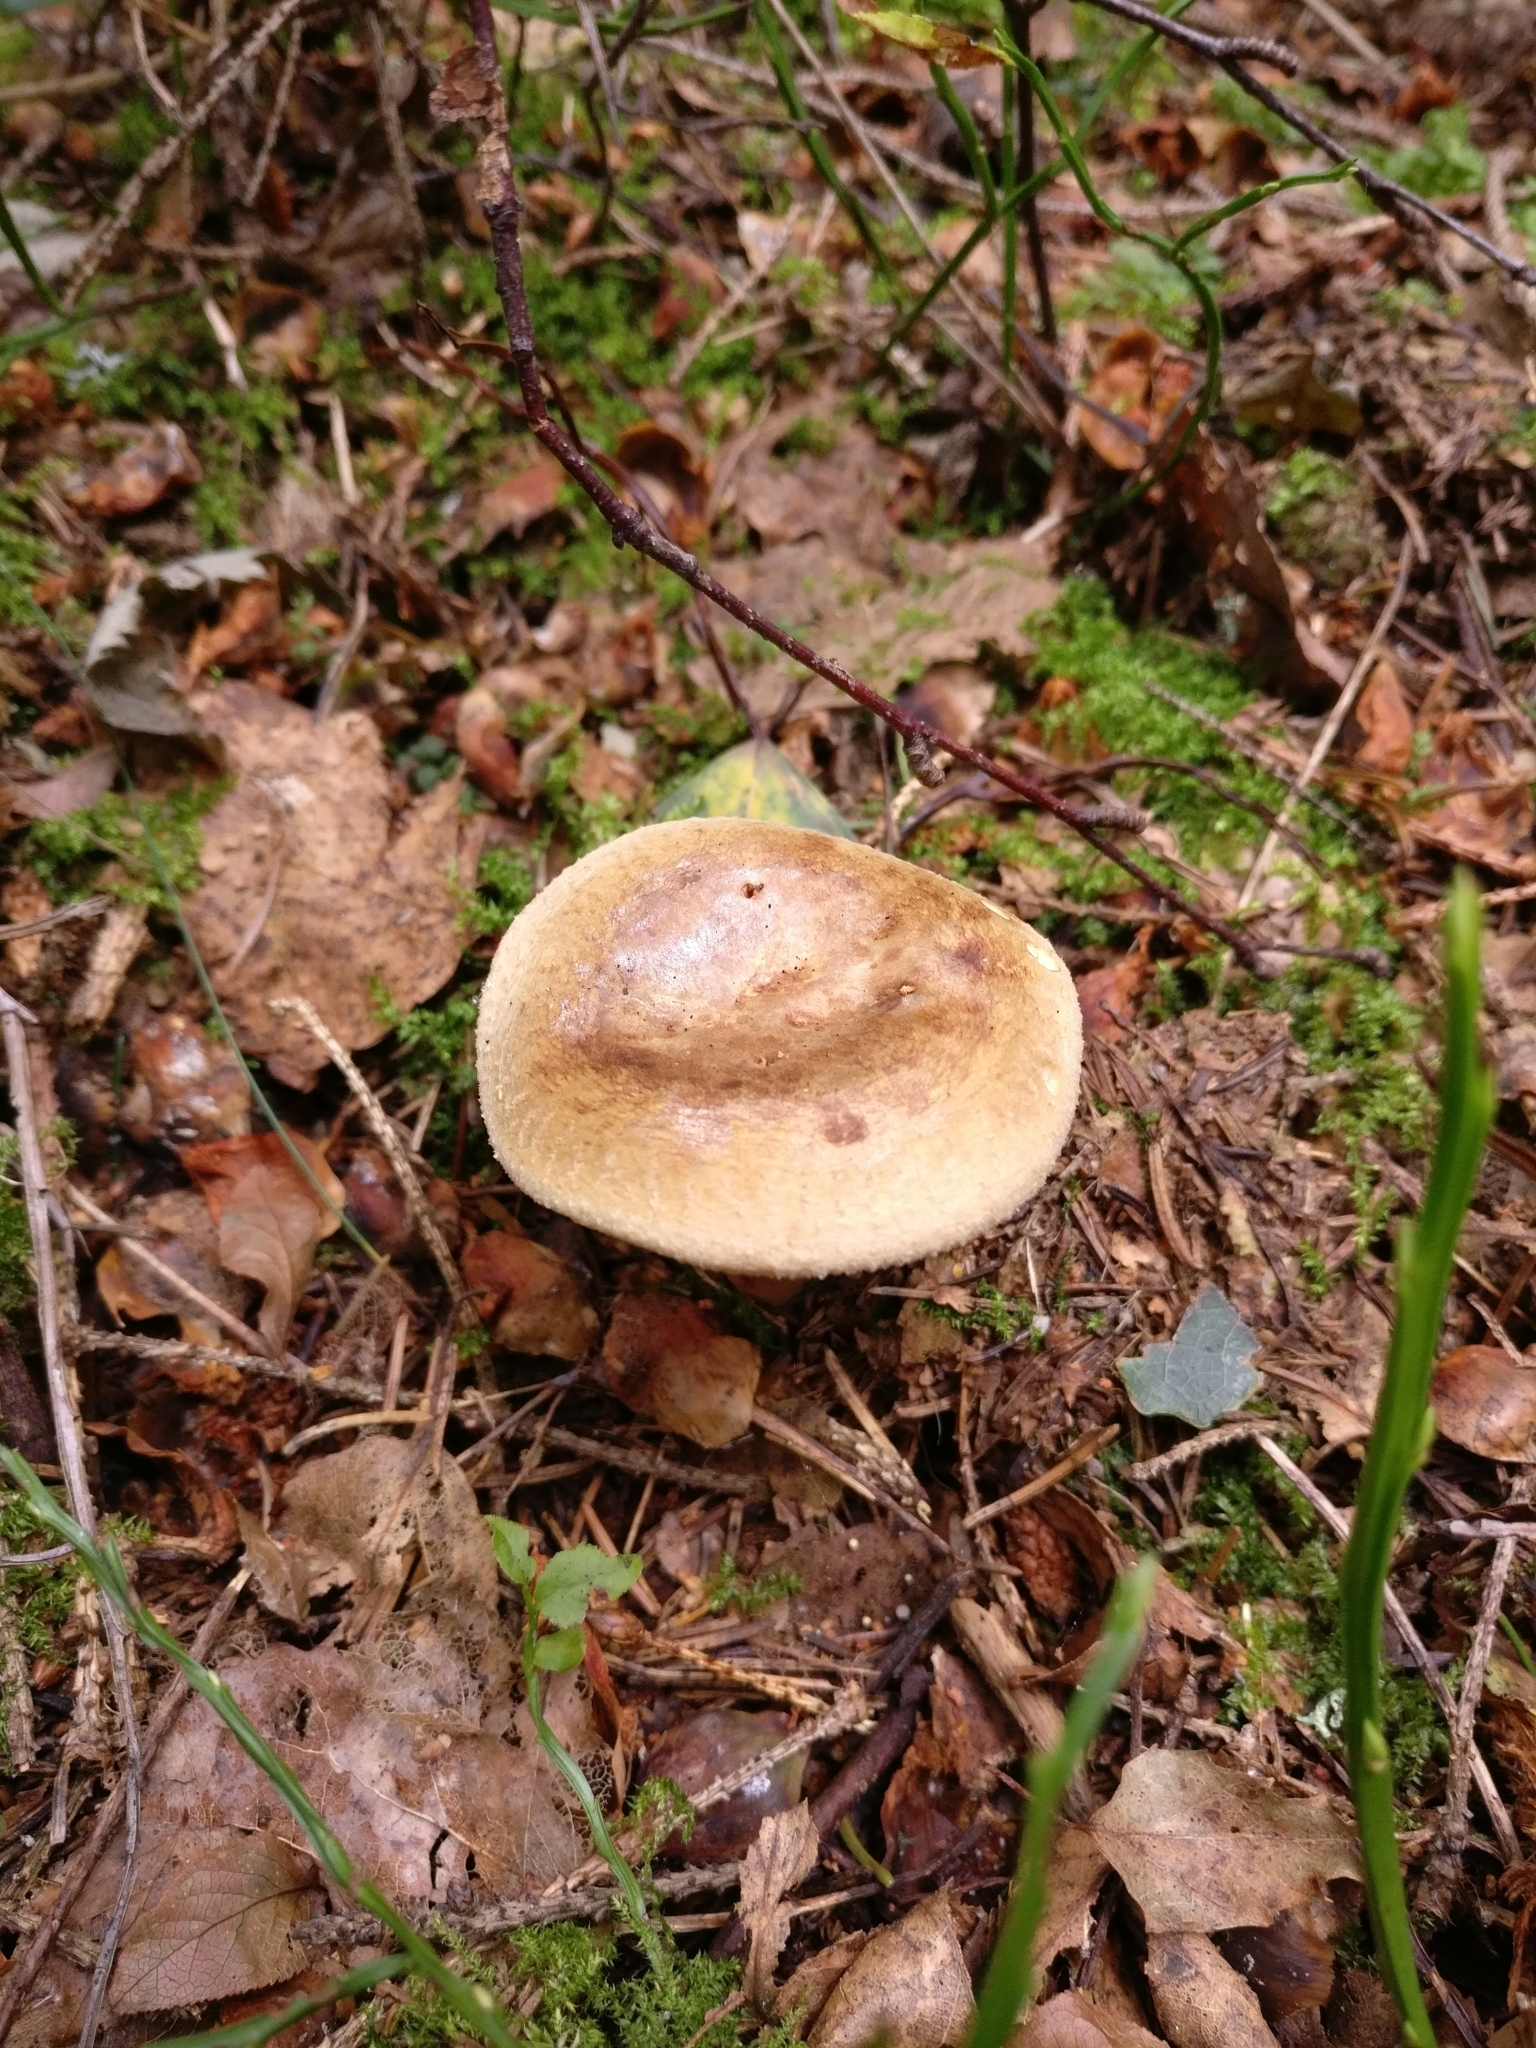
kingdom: Fungi
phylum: Basidiomycota
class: Agaricomycetes
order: Boletales
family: Paxillaceae
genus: Paxillus
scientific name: Paxillus involutus
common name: Brown roll rim
